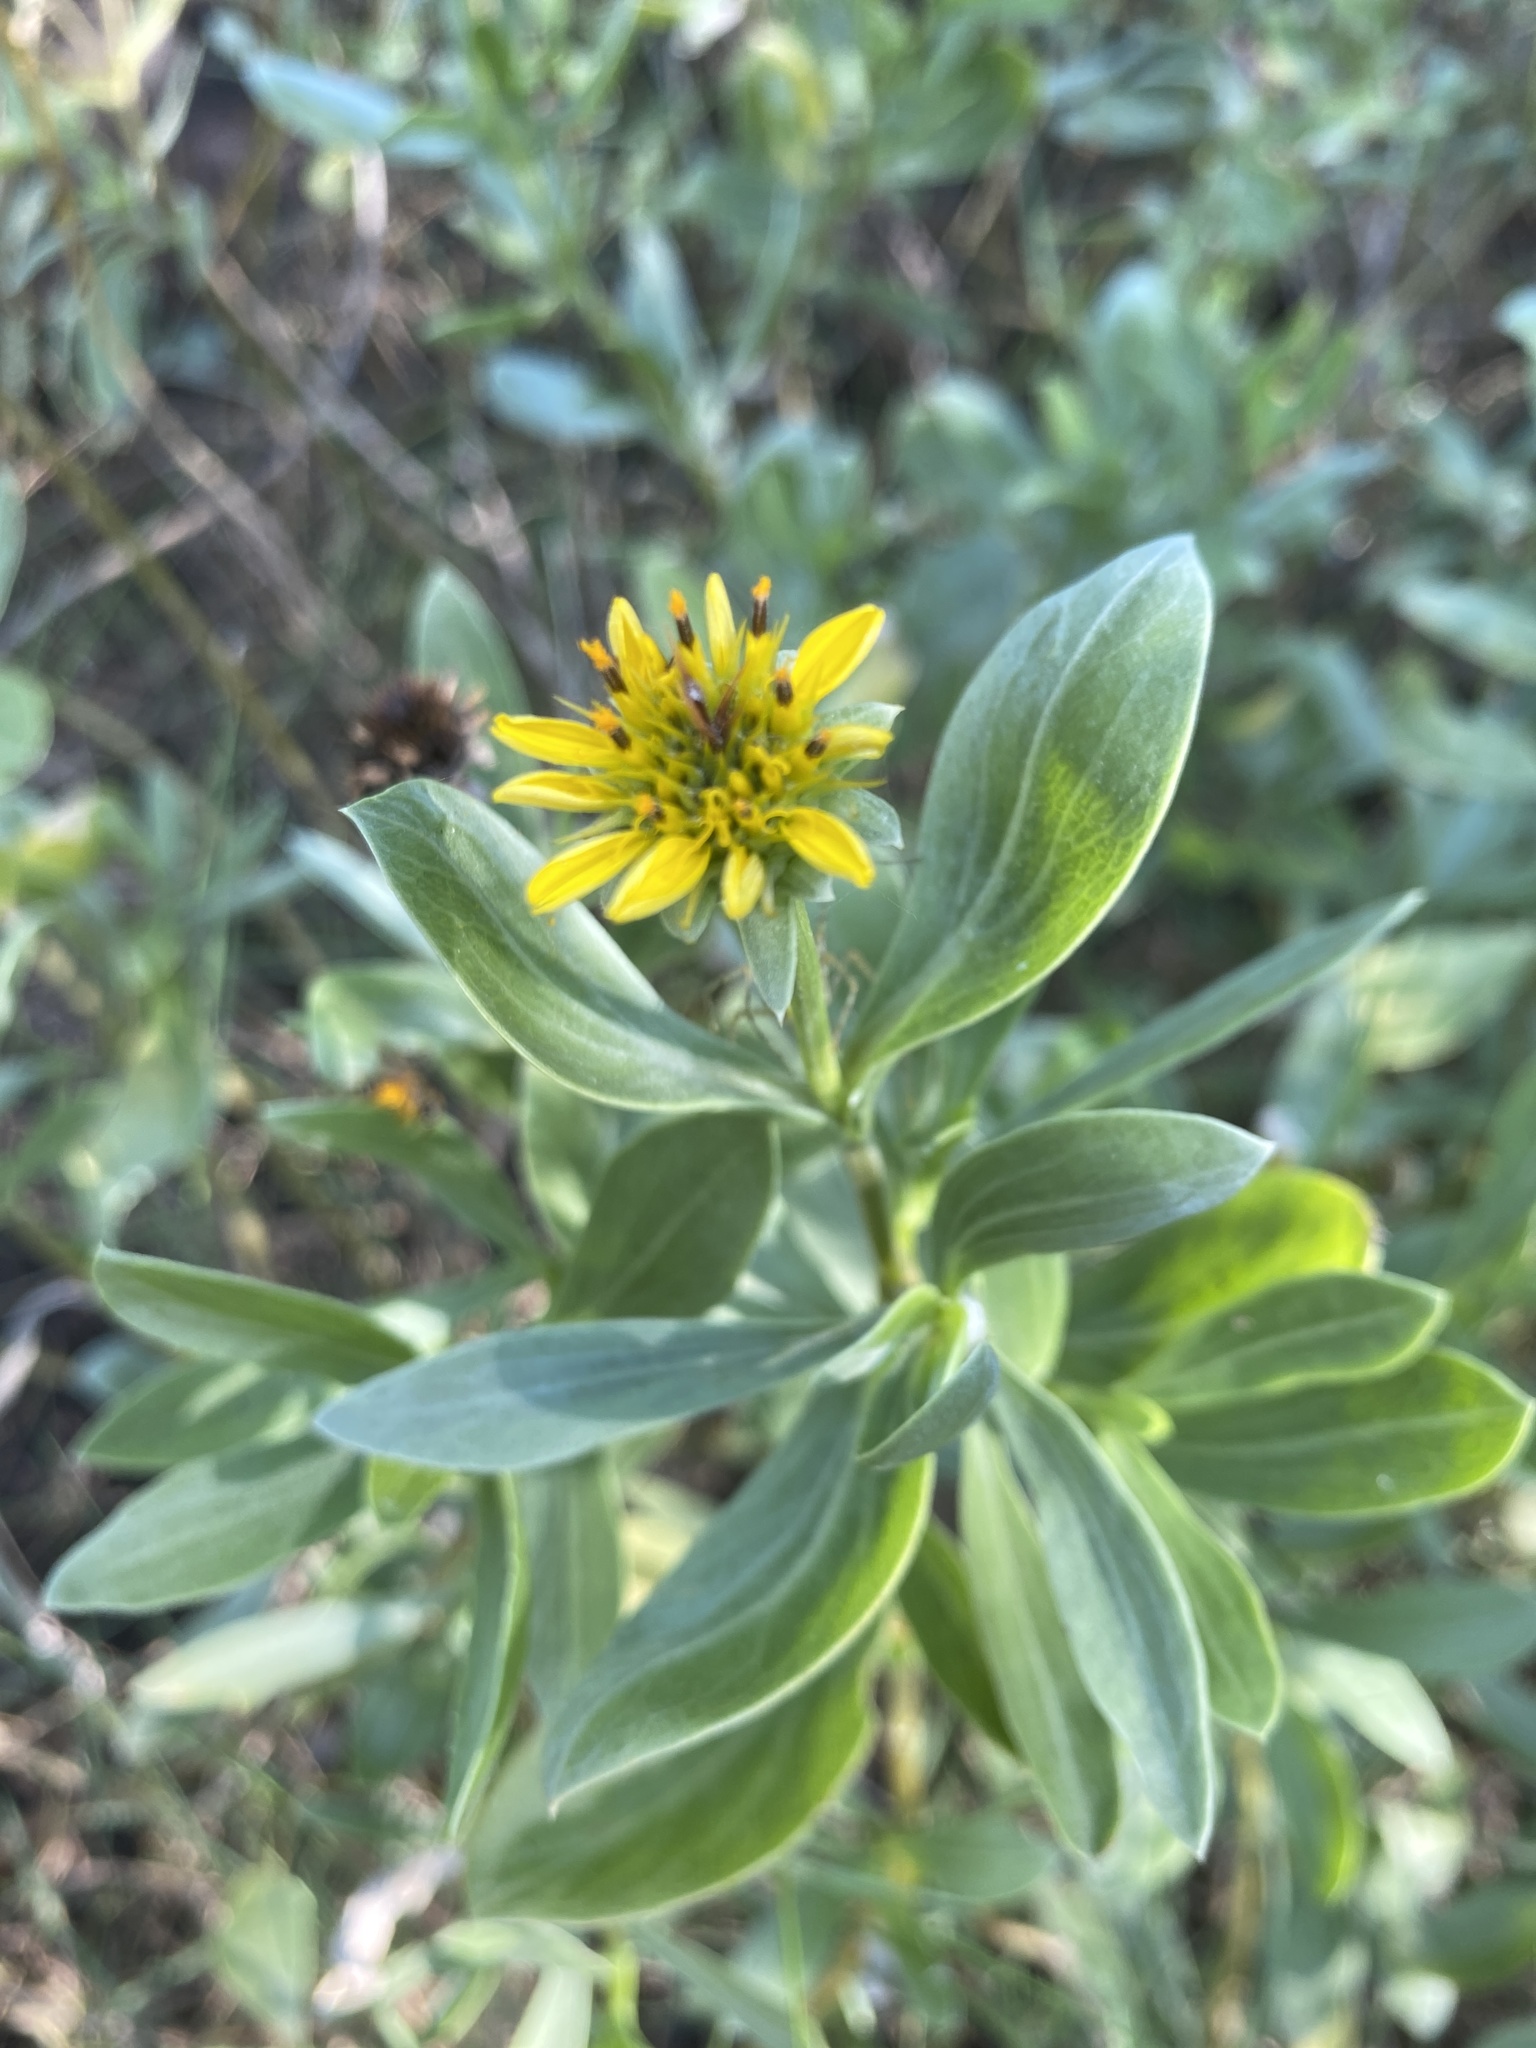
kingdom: Plantae
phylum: Tracheophyta
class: Magnoliopsida
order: Asterales
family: Asteraceae
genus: Borrichia
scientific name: Borrichia frutescens
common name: Sea oxeye
